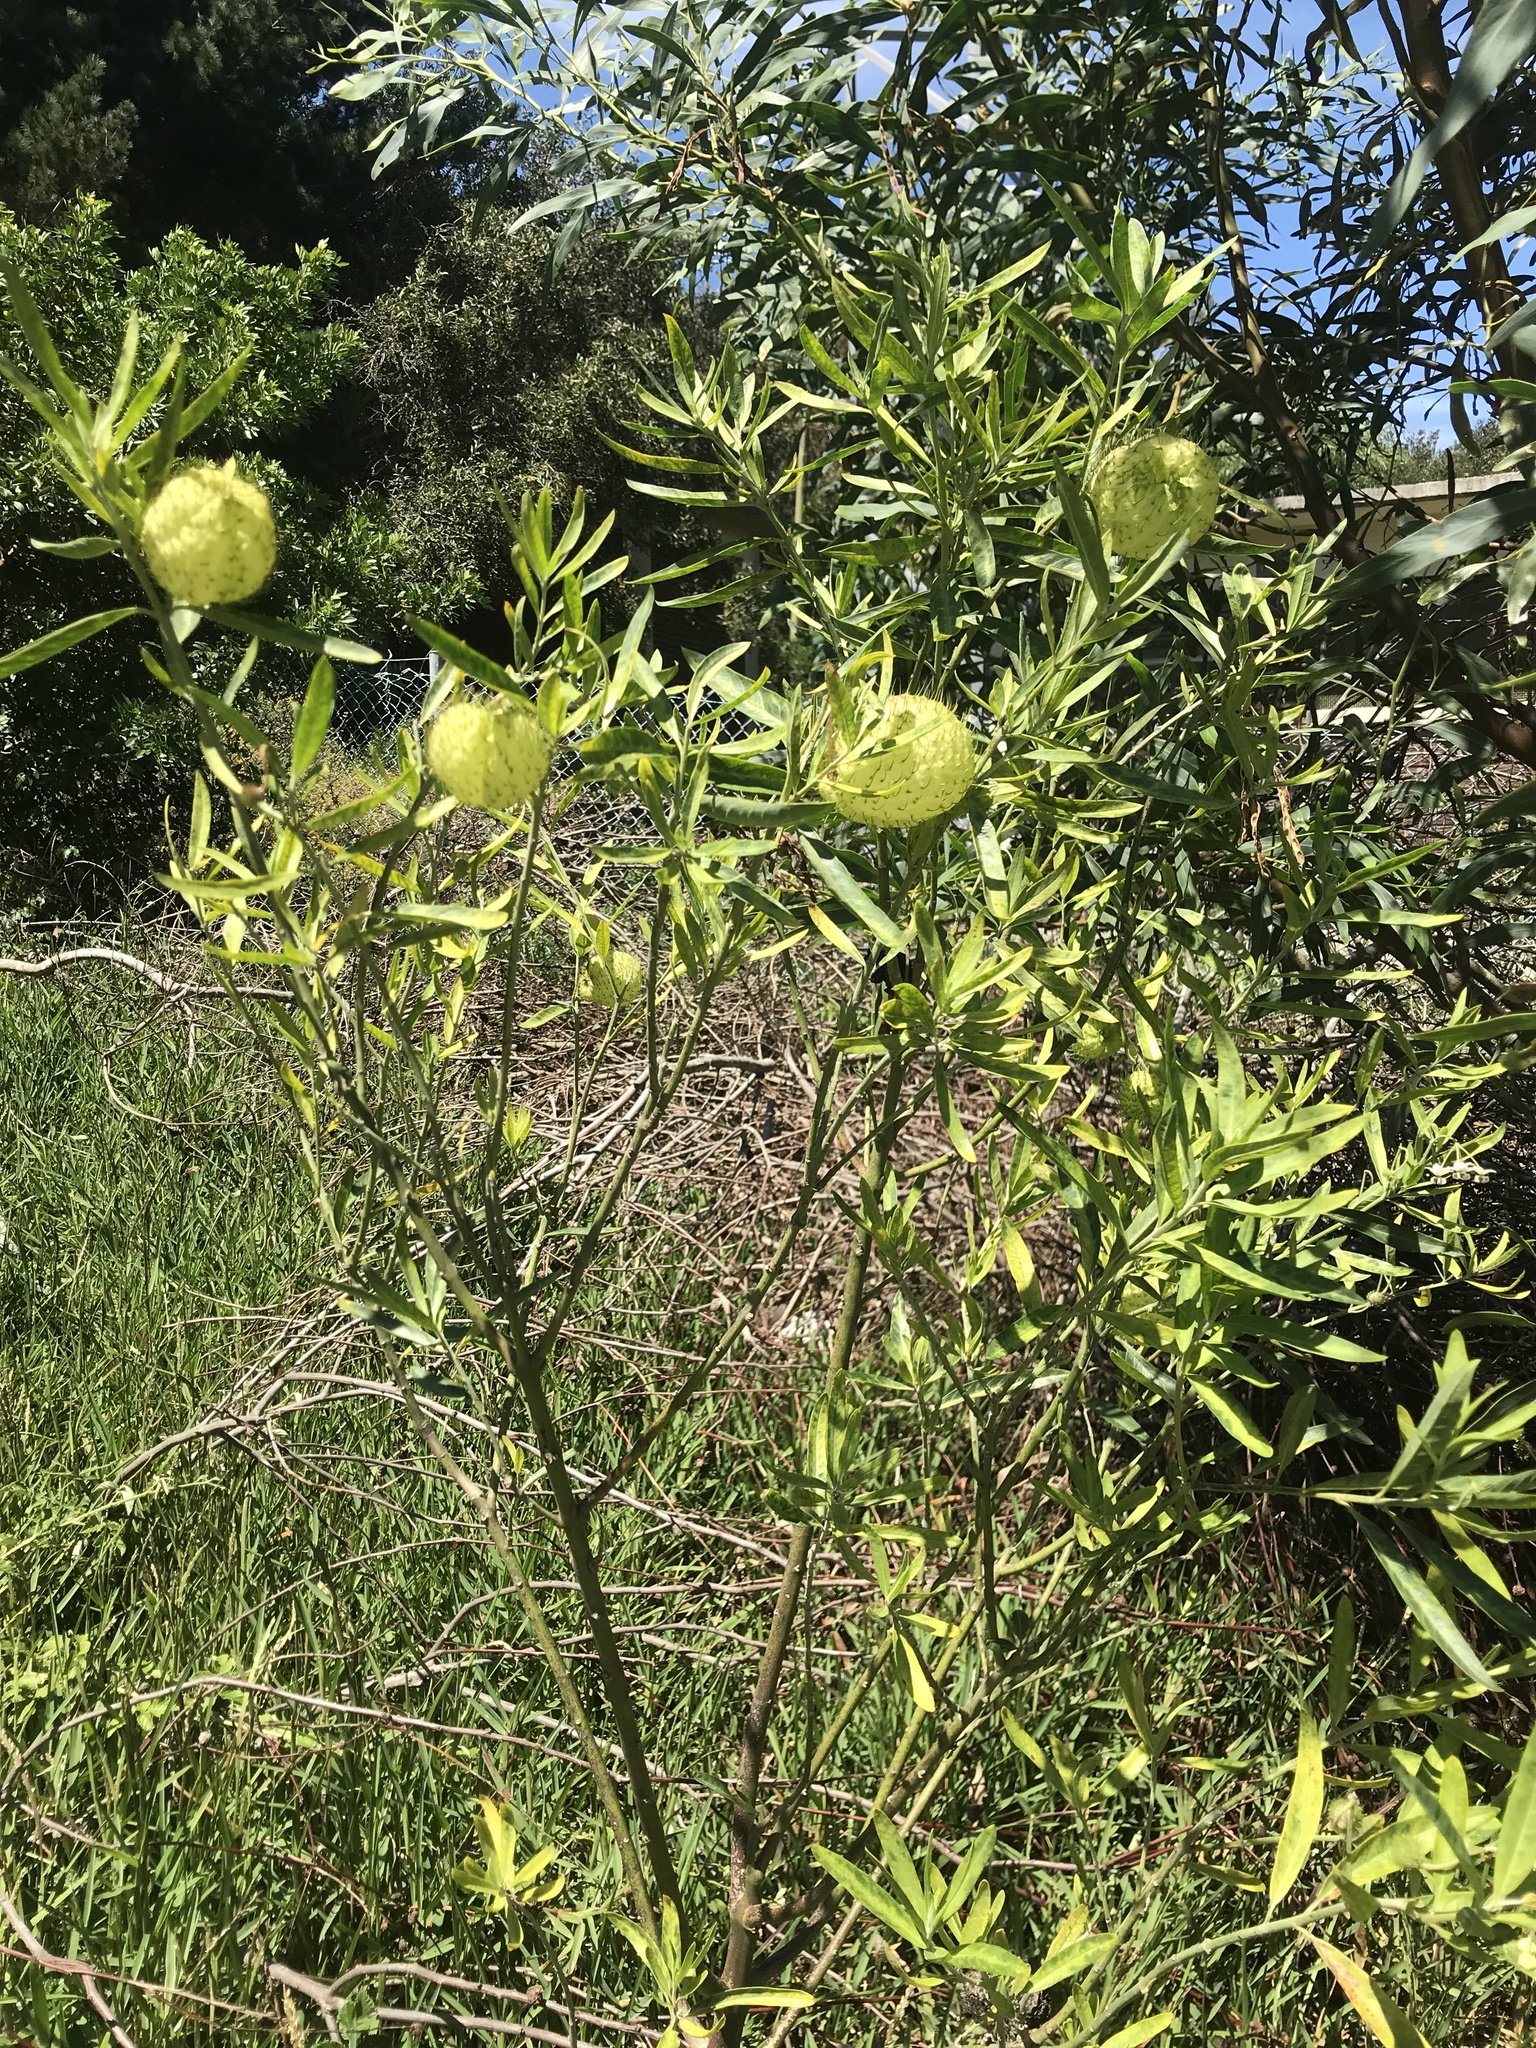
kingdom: Plantae
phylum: Tracheophyta
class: Magnoliopsida
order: Gentianales
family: Apocynaceae
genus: Gomphocarpus
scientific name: Gomphocarpus physocarpus
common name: Balloon cotton bush
